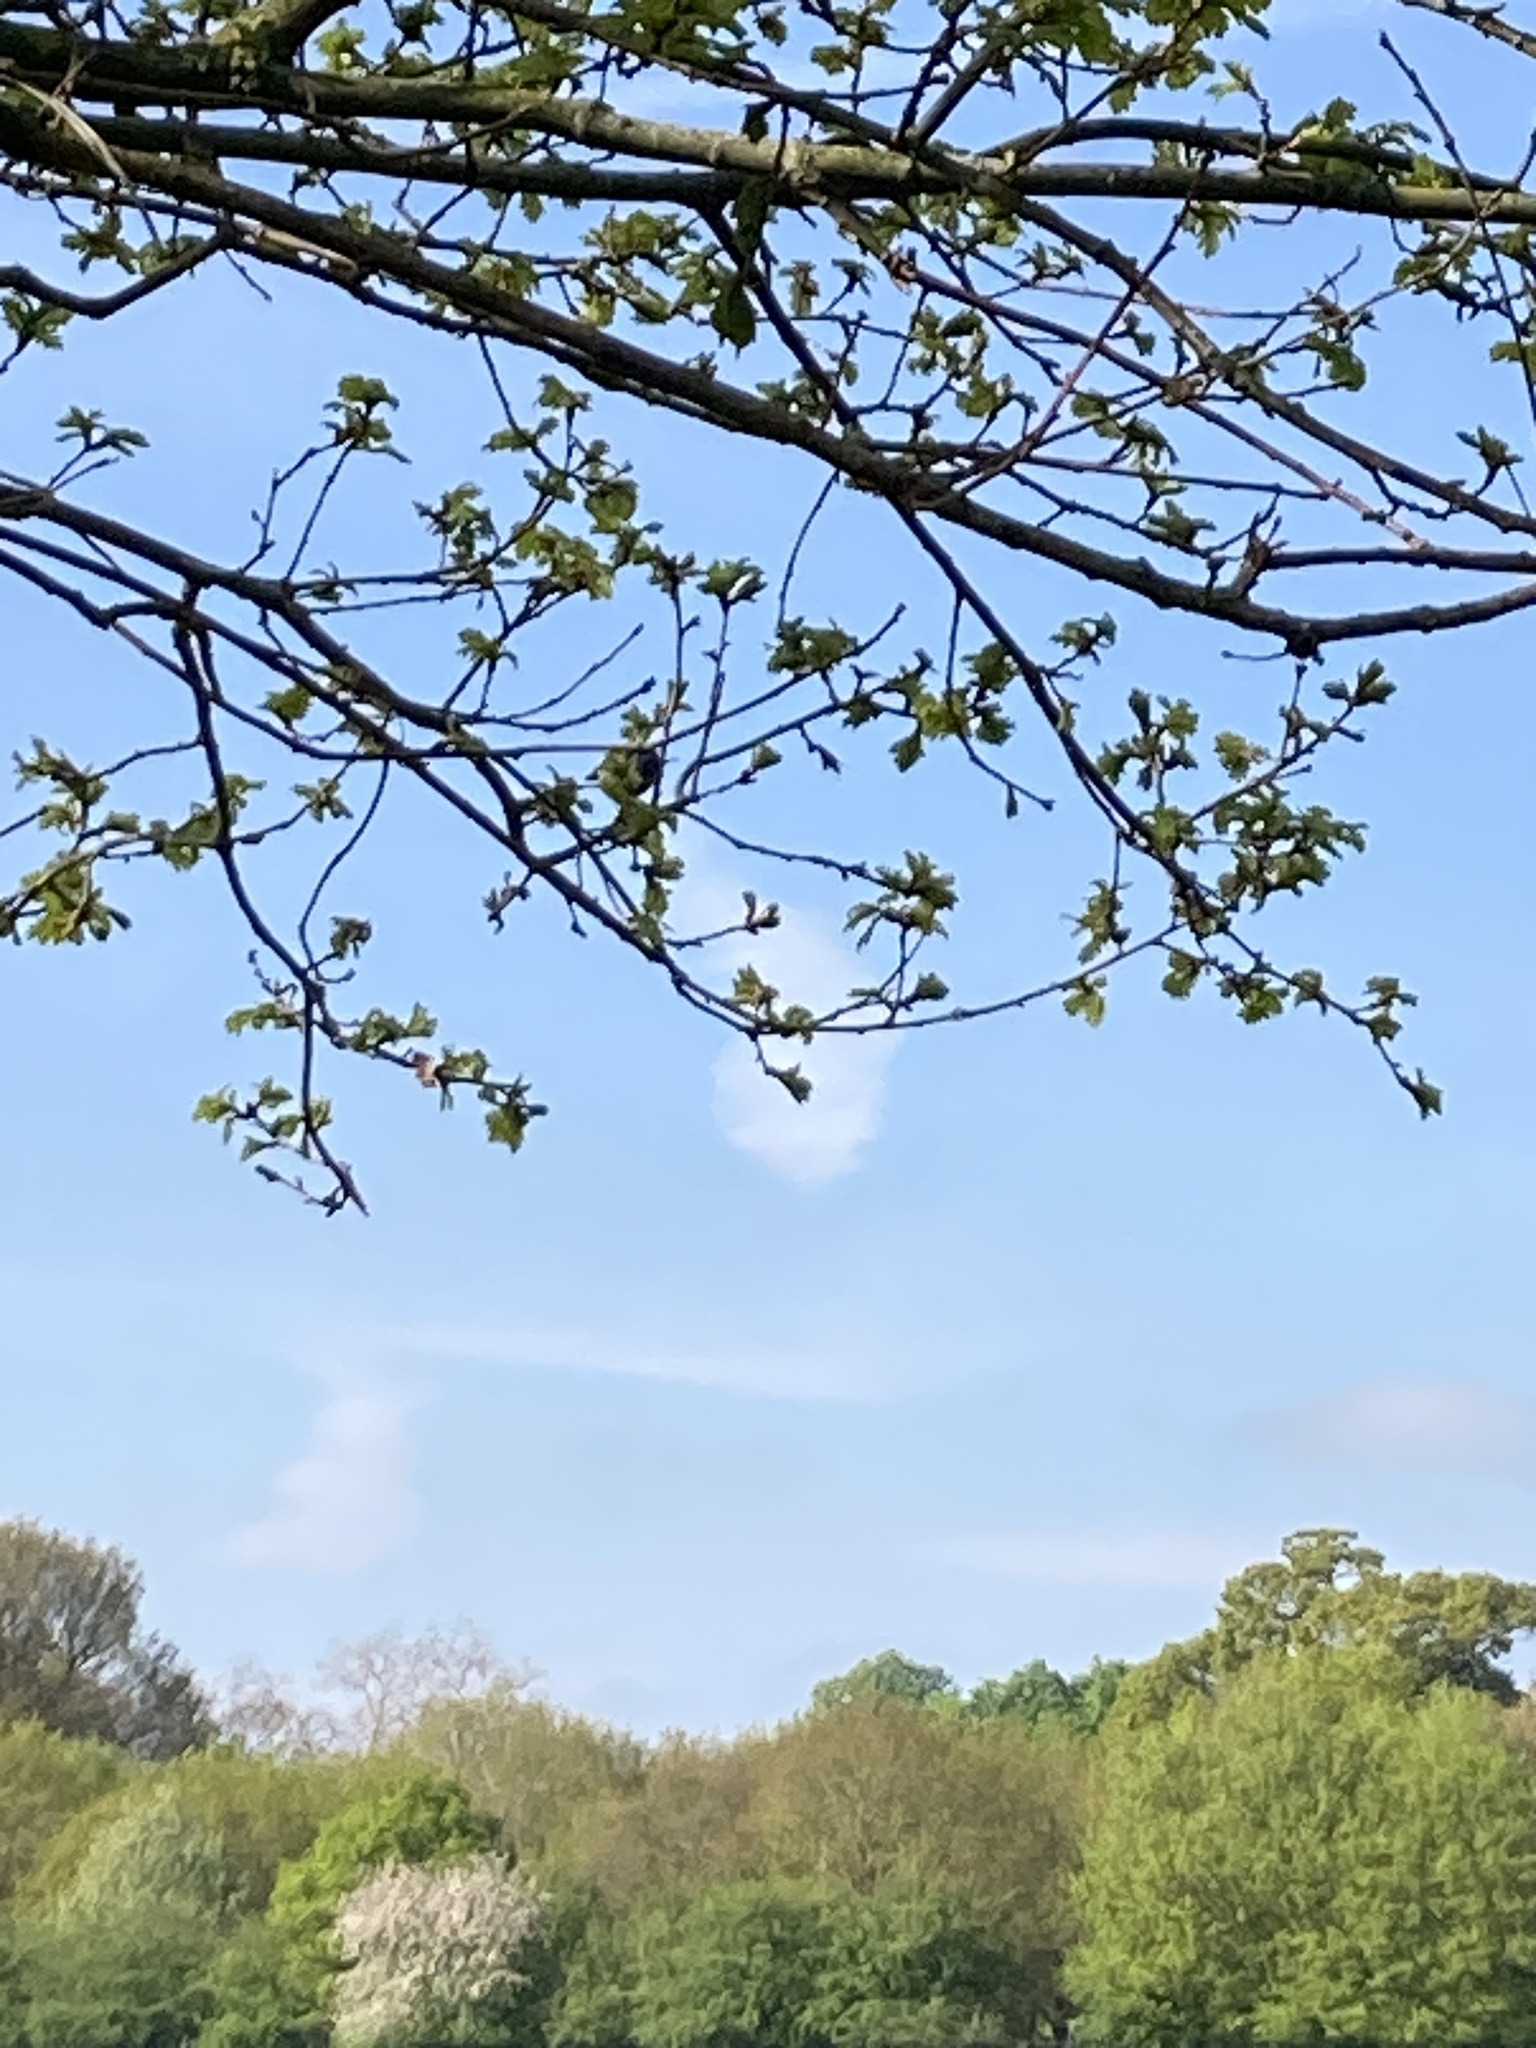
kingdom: Animalia
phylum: Chordata
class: Aves
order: Passeriformes
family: Paridae
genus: Cyanistes
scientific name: Cyanistes caeruleus
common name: Eurasian blue tit
